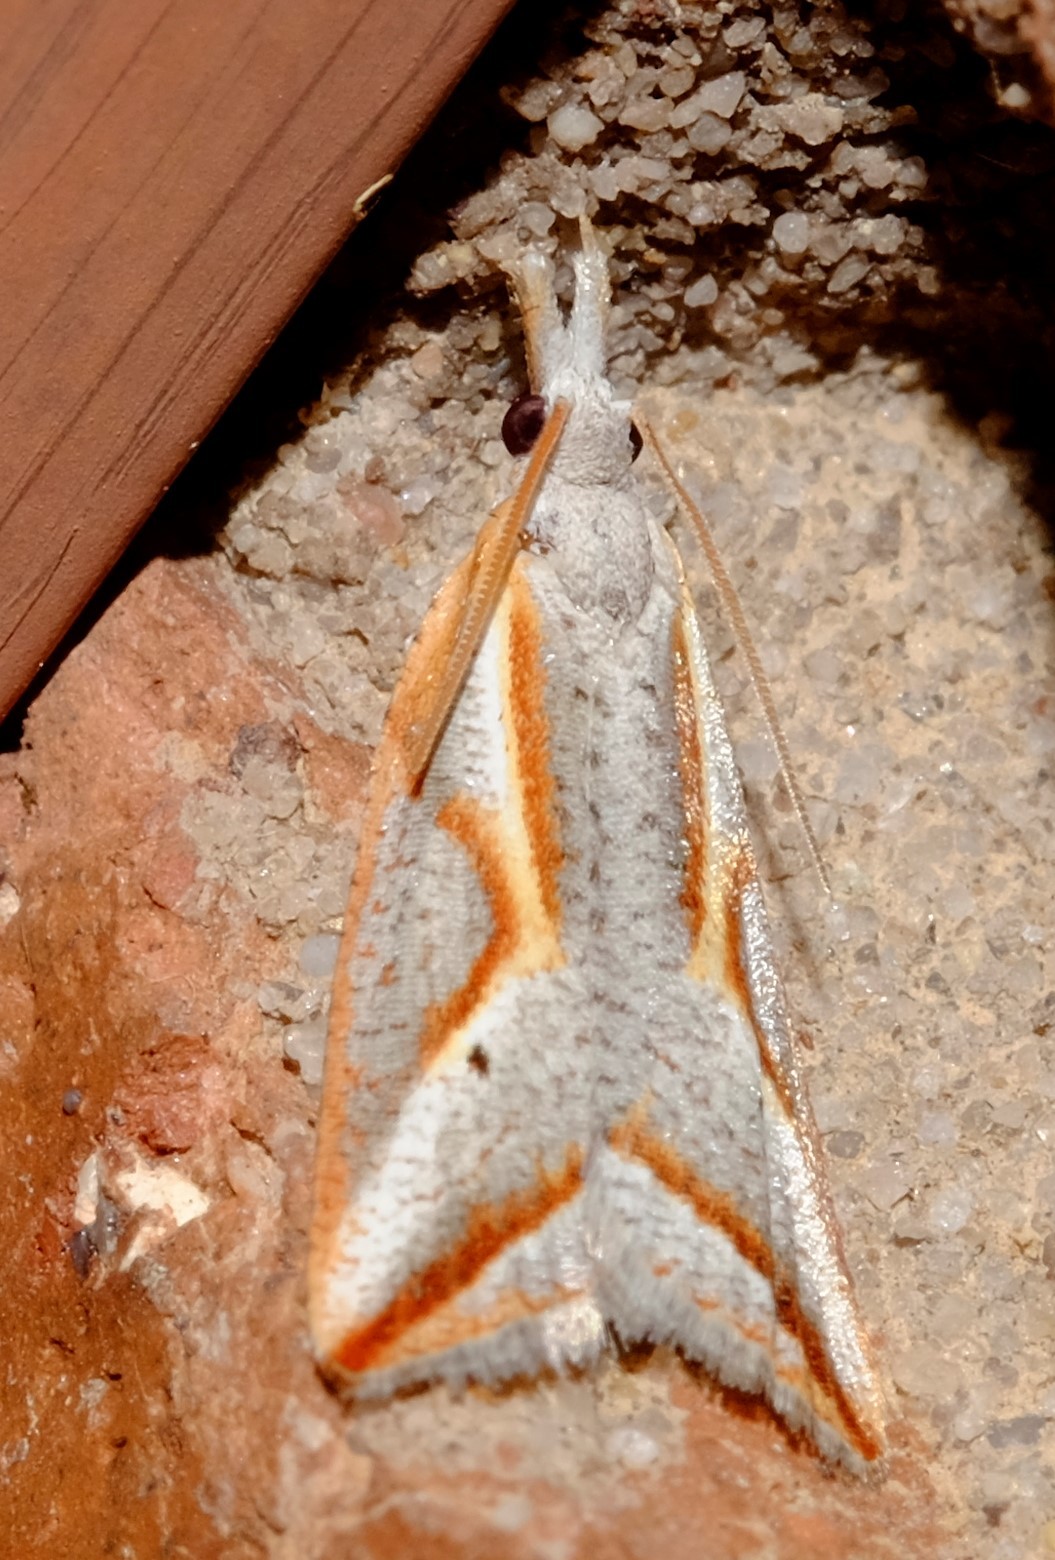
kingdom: Animalia
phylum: Arthropoda
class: Insecta
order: Lepidoptera
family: Tortricidae
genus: Arotrophora
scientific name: Arotrophora arcuatalis
